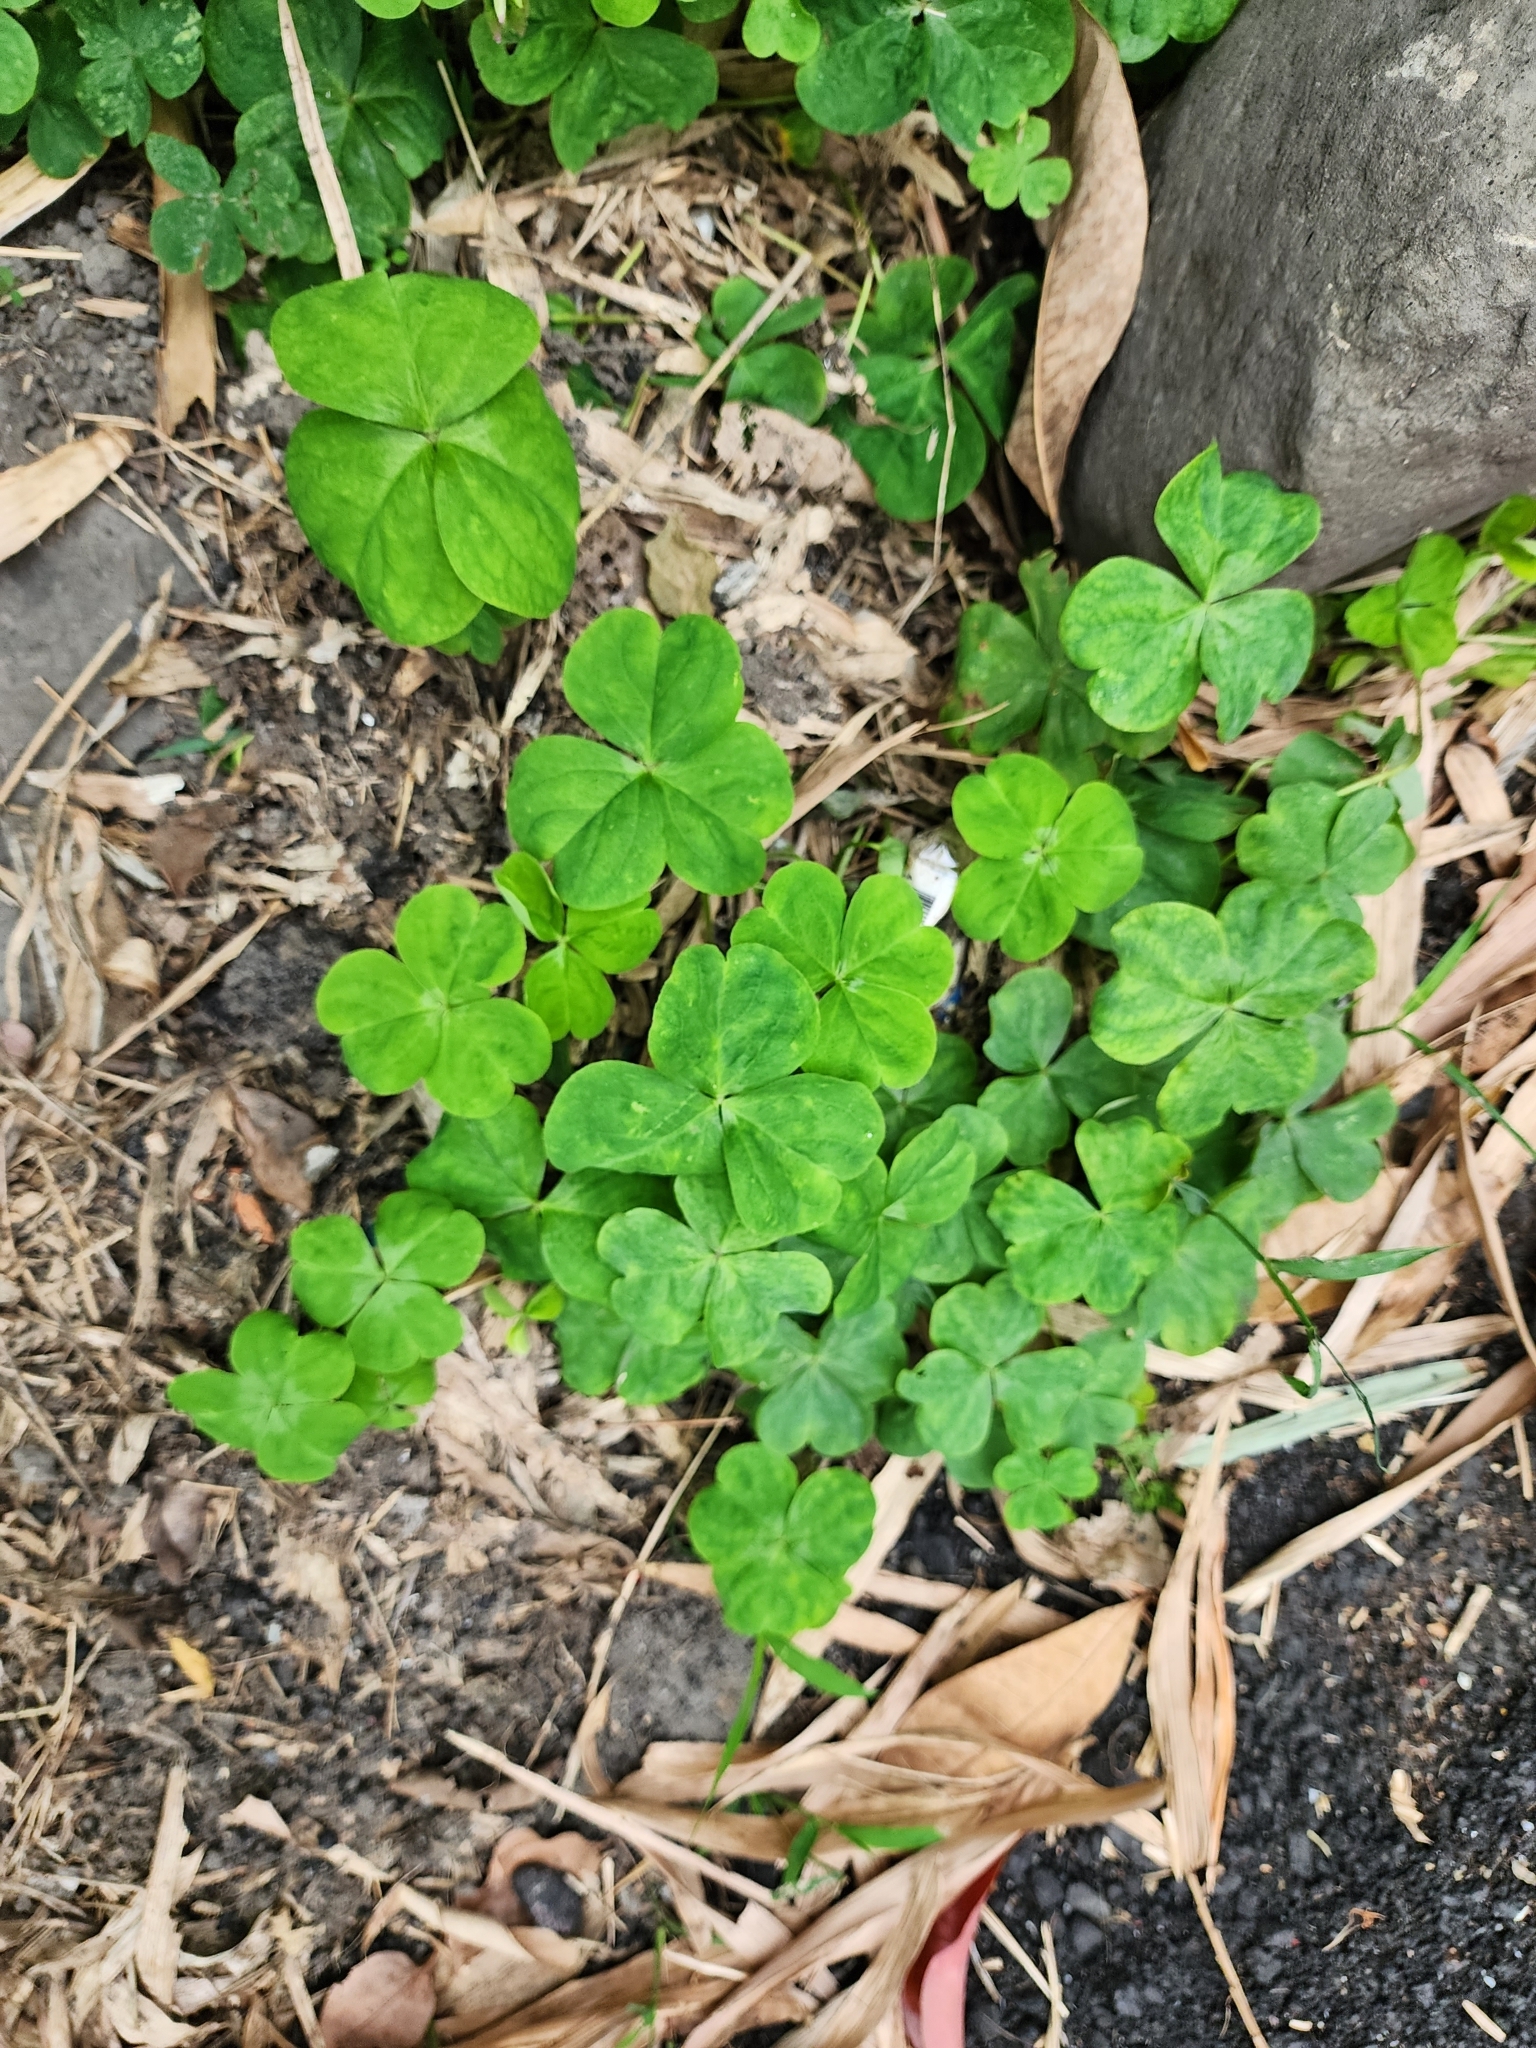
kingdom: Plantae
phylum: Tracheophyta
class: Magnoliopsida
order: Oxalidales
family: Oxalidaceae
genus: Oxalis
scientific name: Oxalis debilis
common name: Large-flowered pink-sorrel
